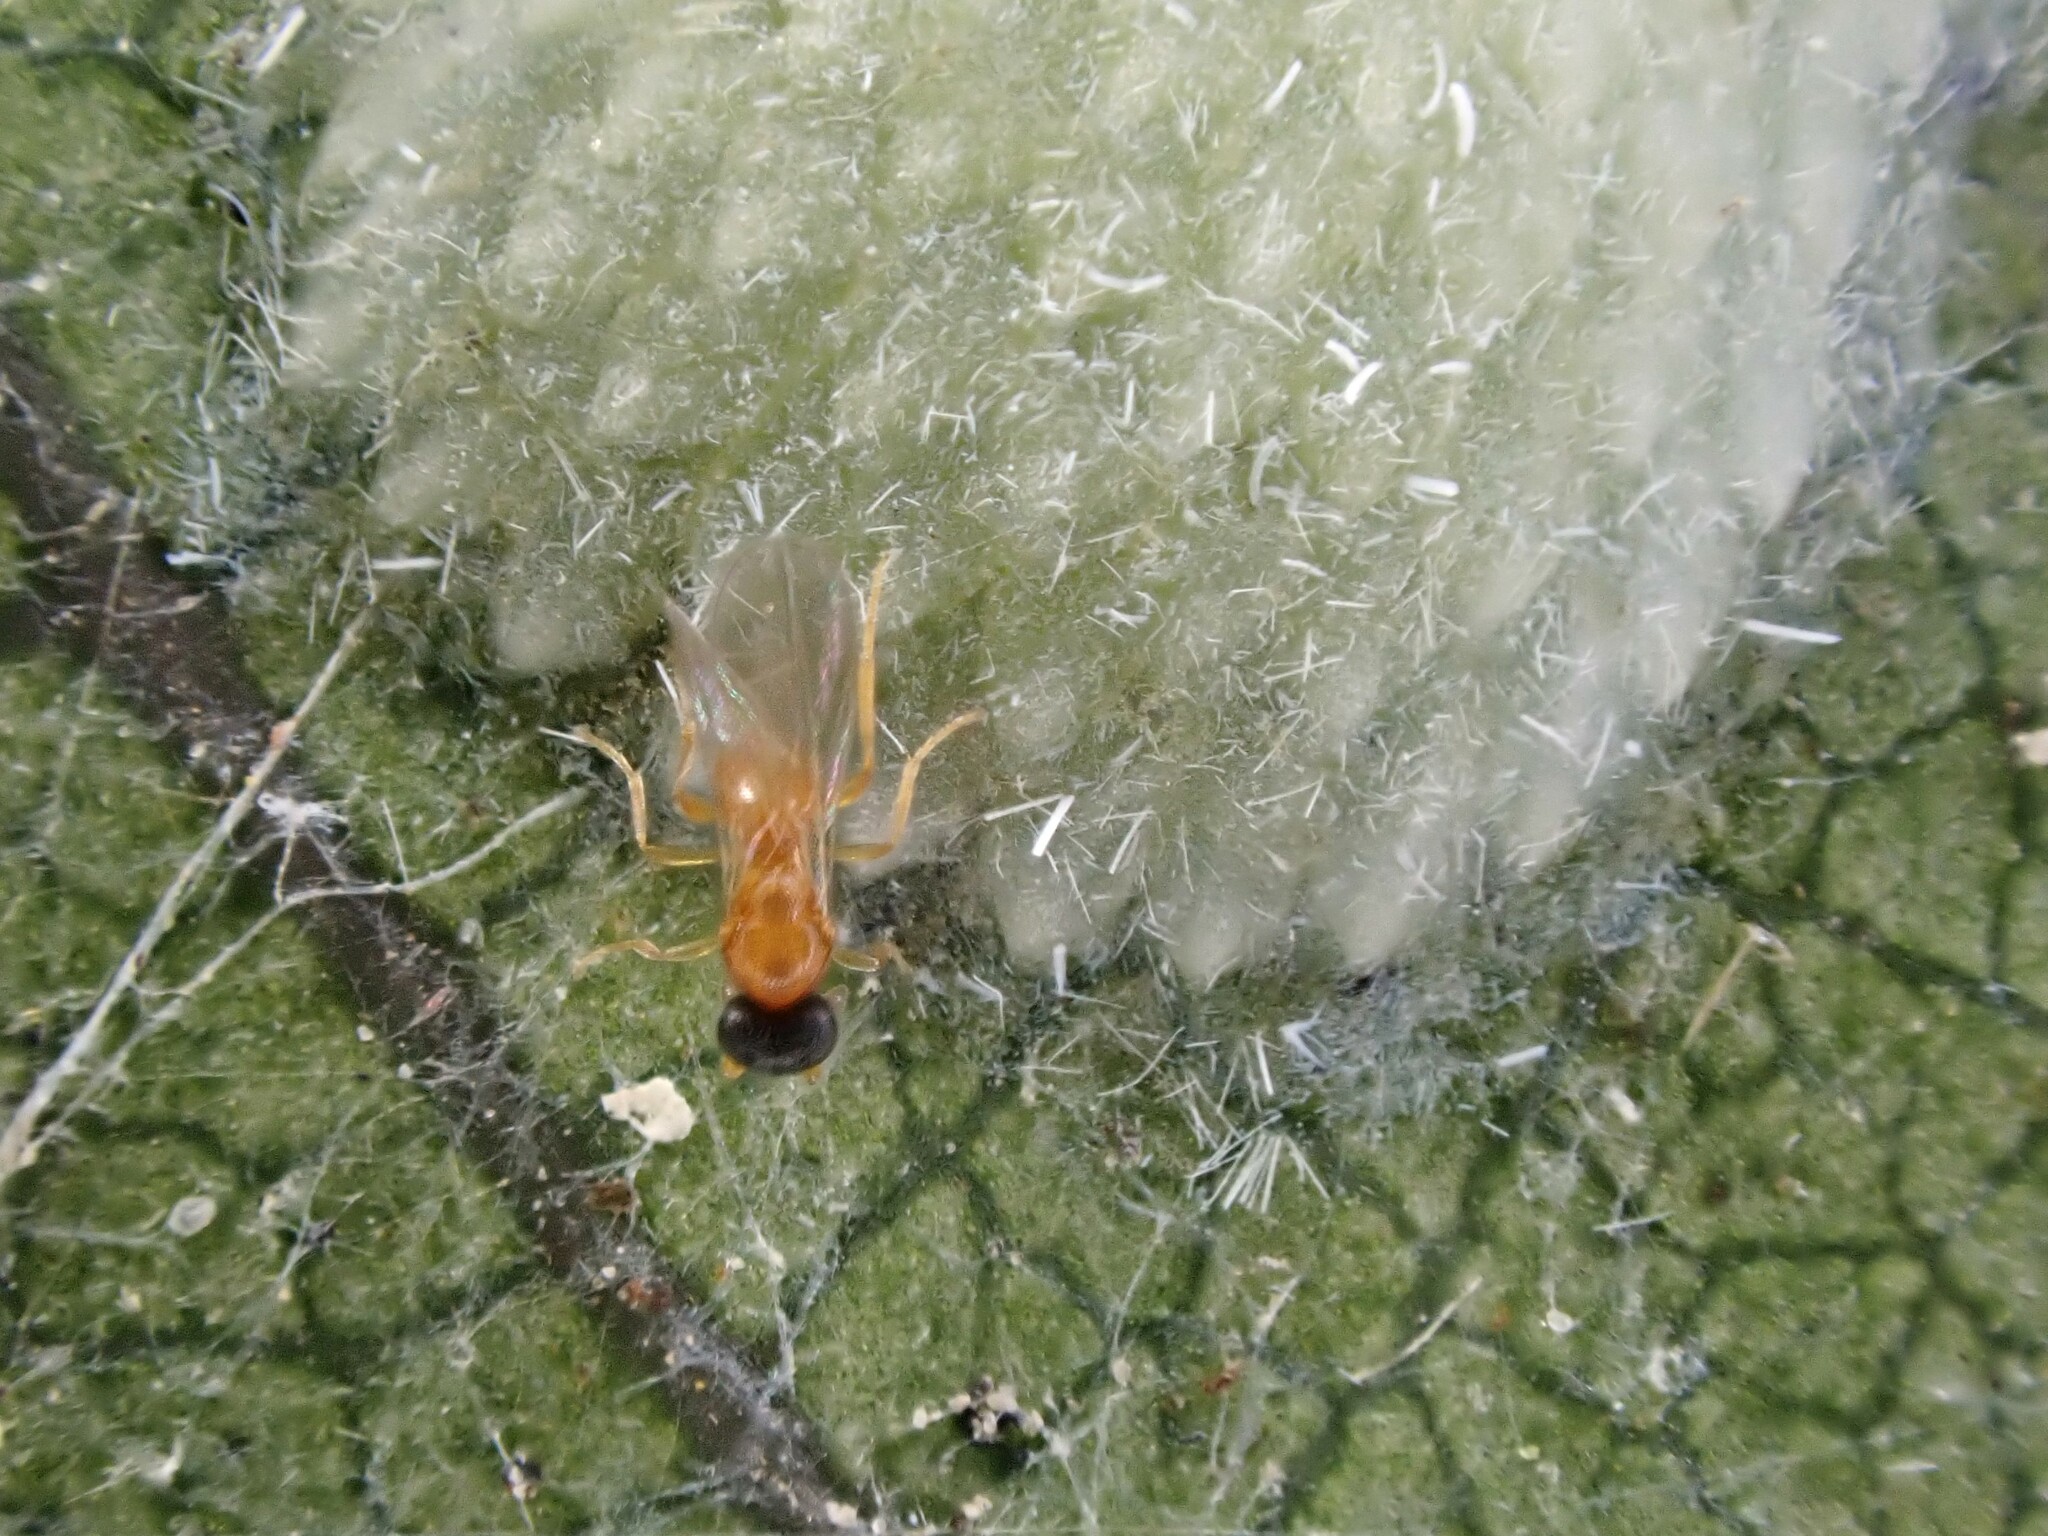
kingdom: Animalia
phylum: Arthropoda
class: Insecta
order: Hemiptera
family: Flatidae
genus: Siphanta
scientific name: Siphanta acuta
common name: Torpedo bug
